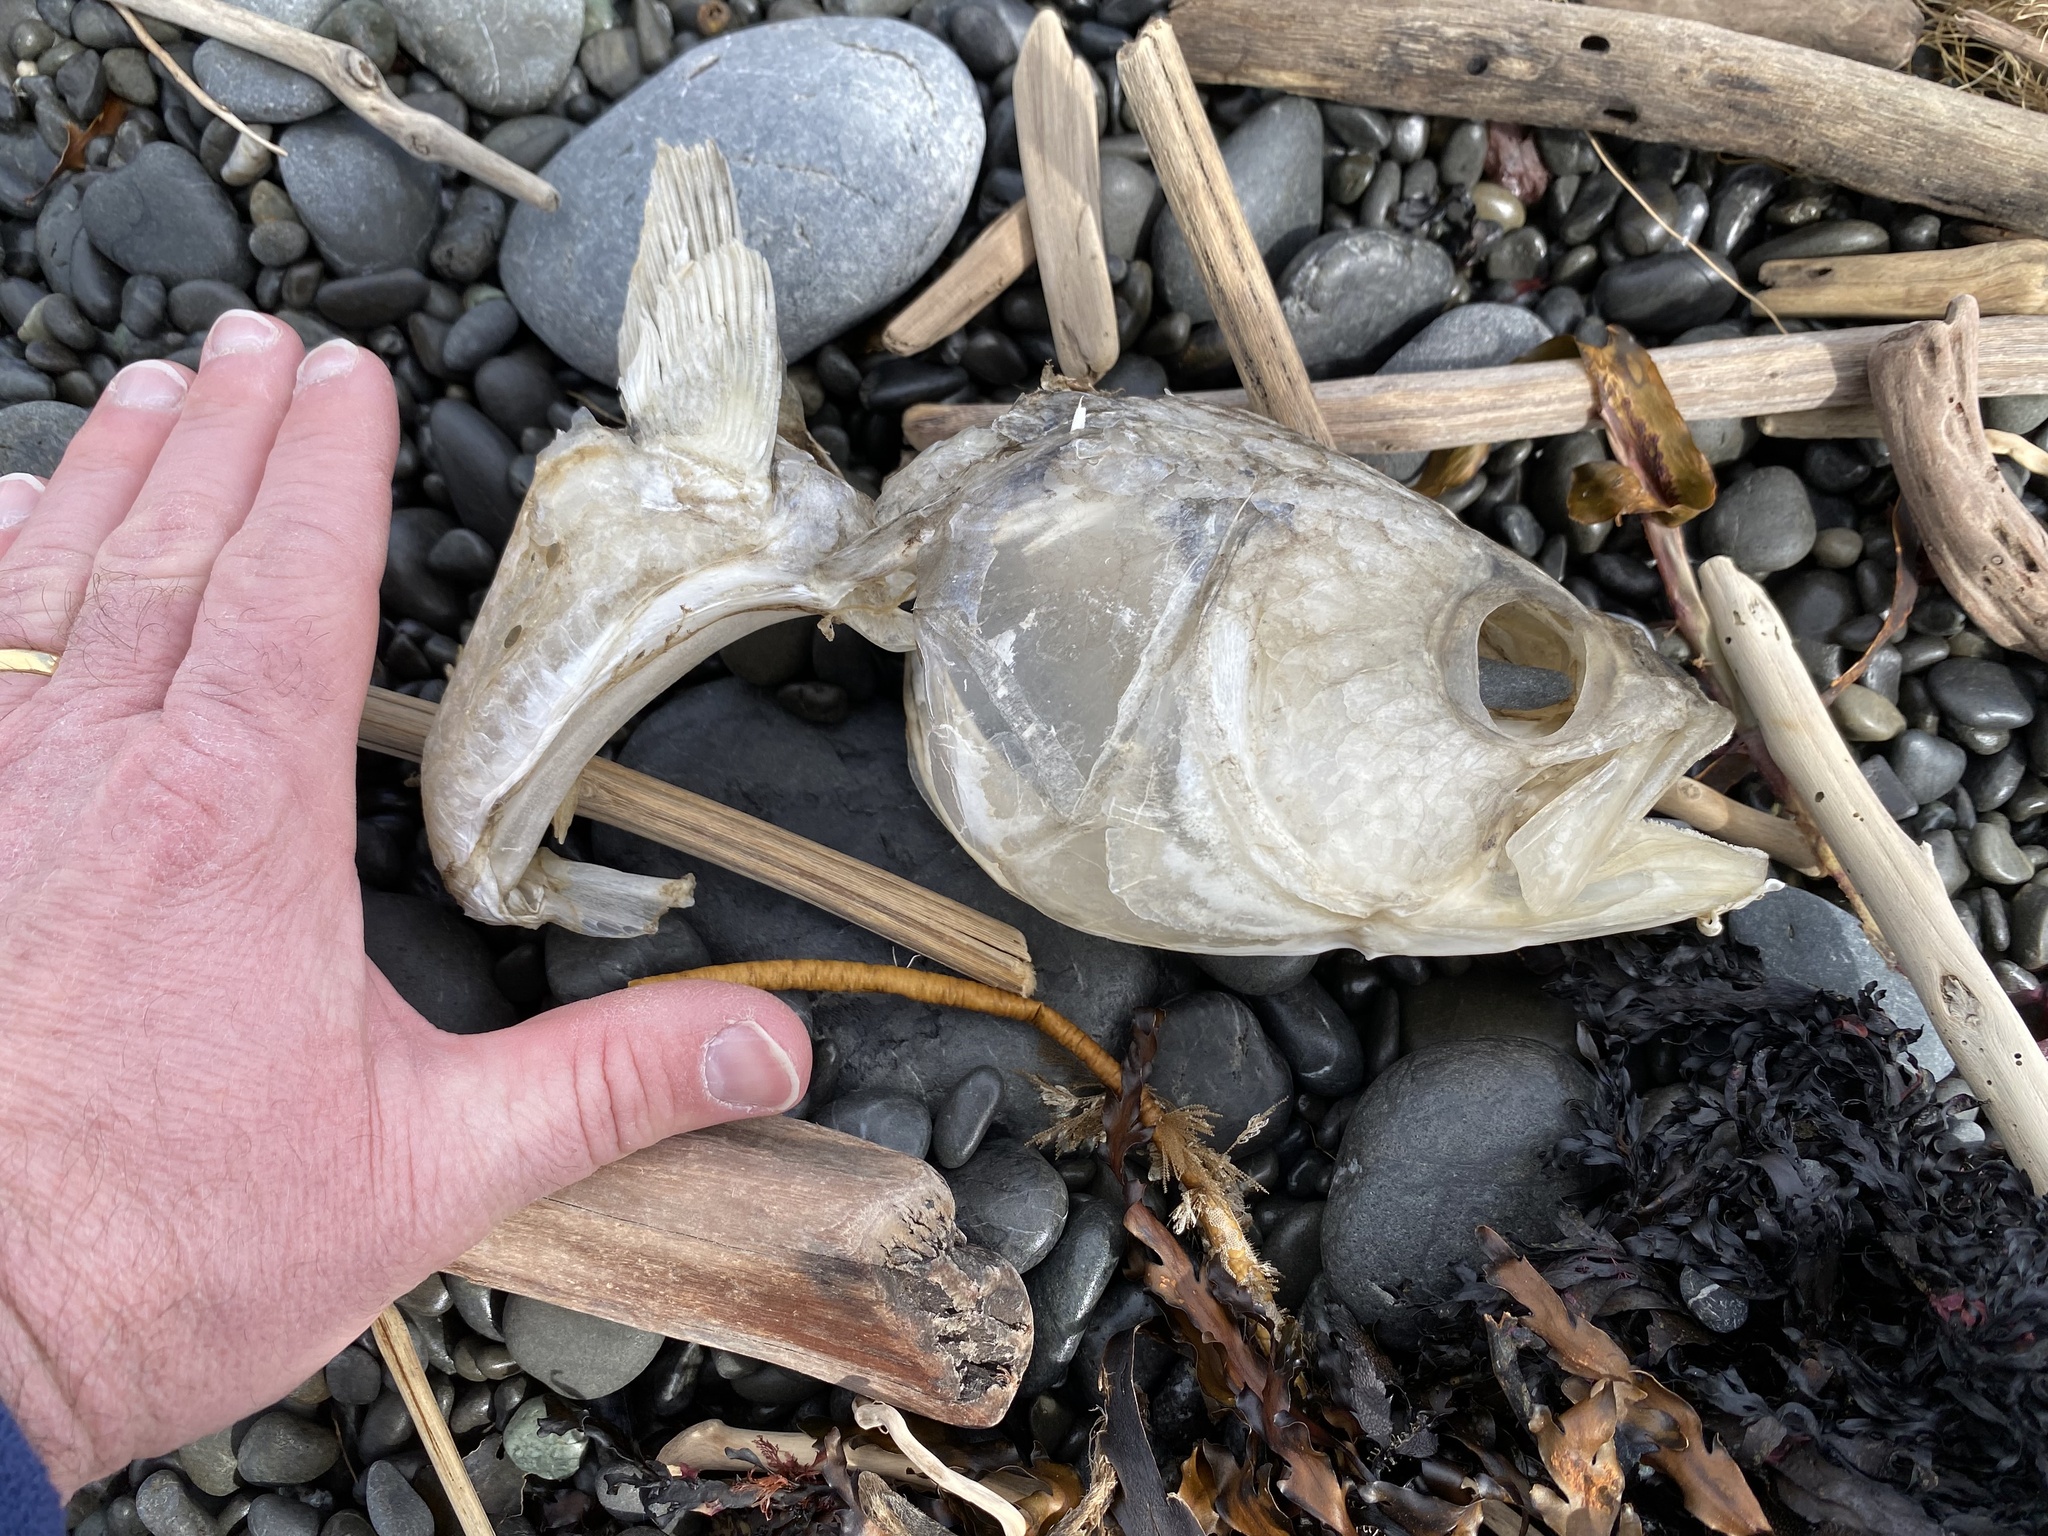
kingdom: Animalia
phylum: Chordata
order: Perciformes
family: Arripidae
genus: Arripis
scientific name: Arripis trutta
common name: Kahawai
